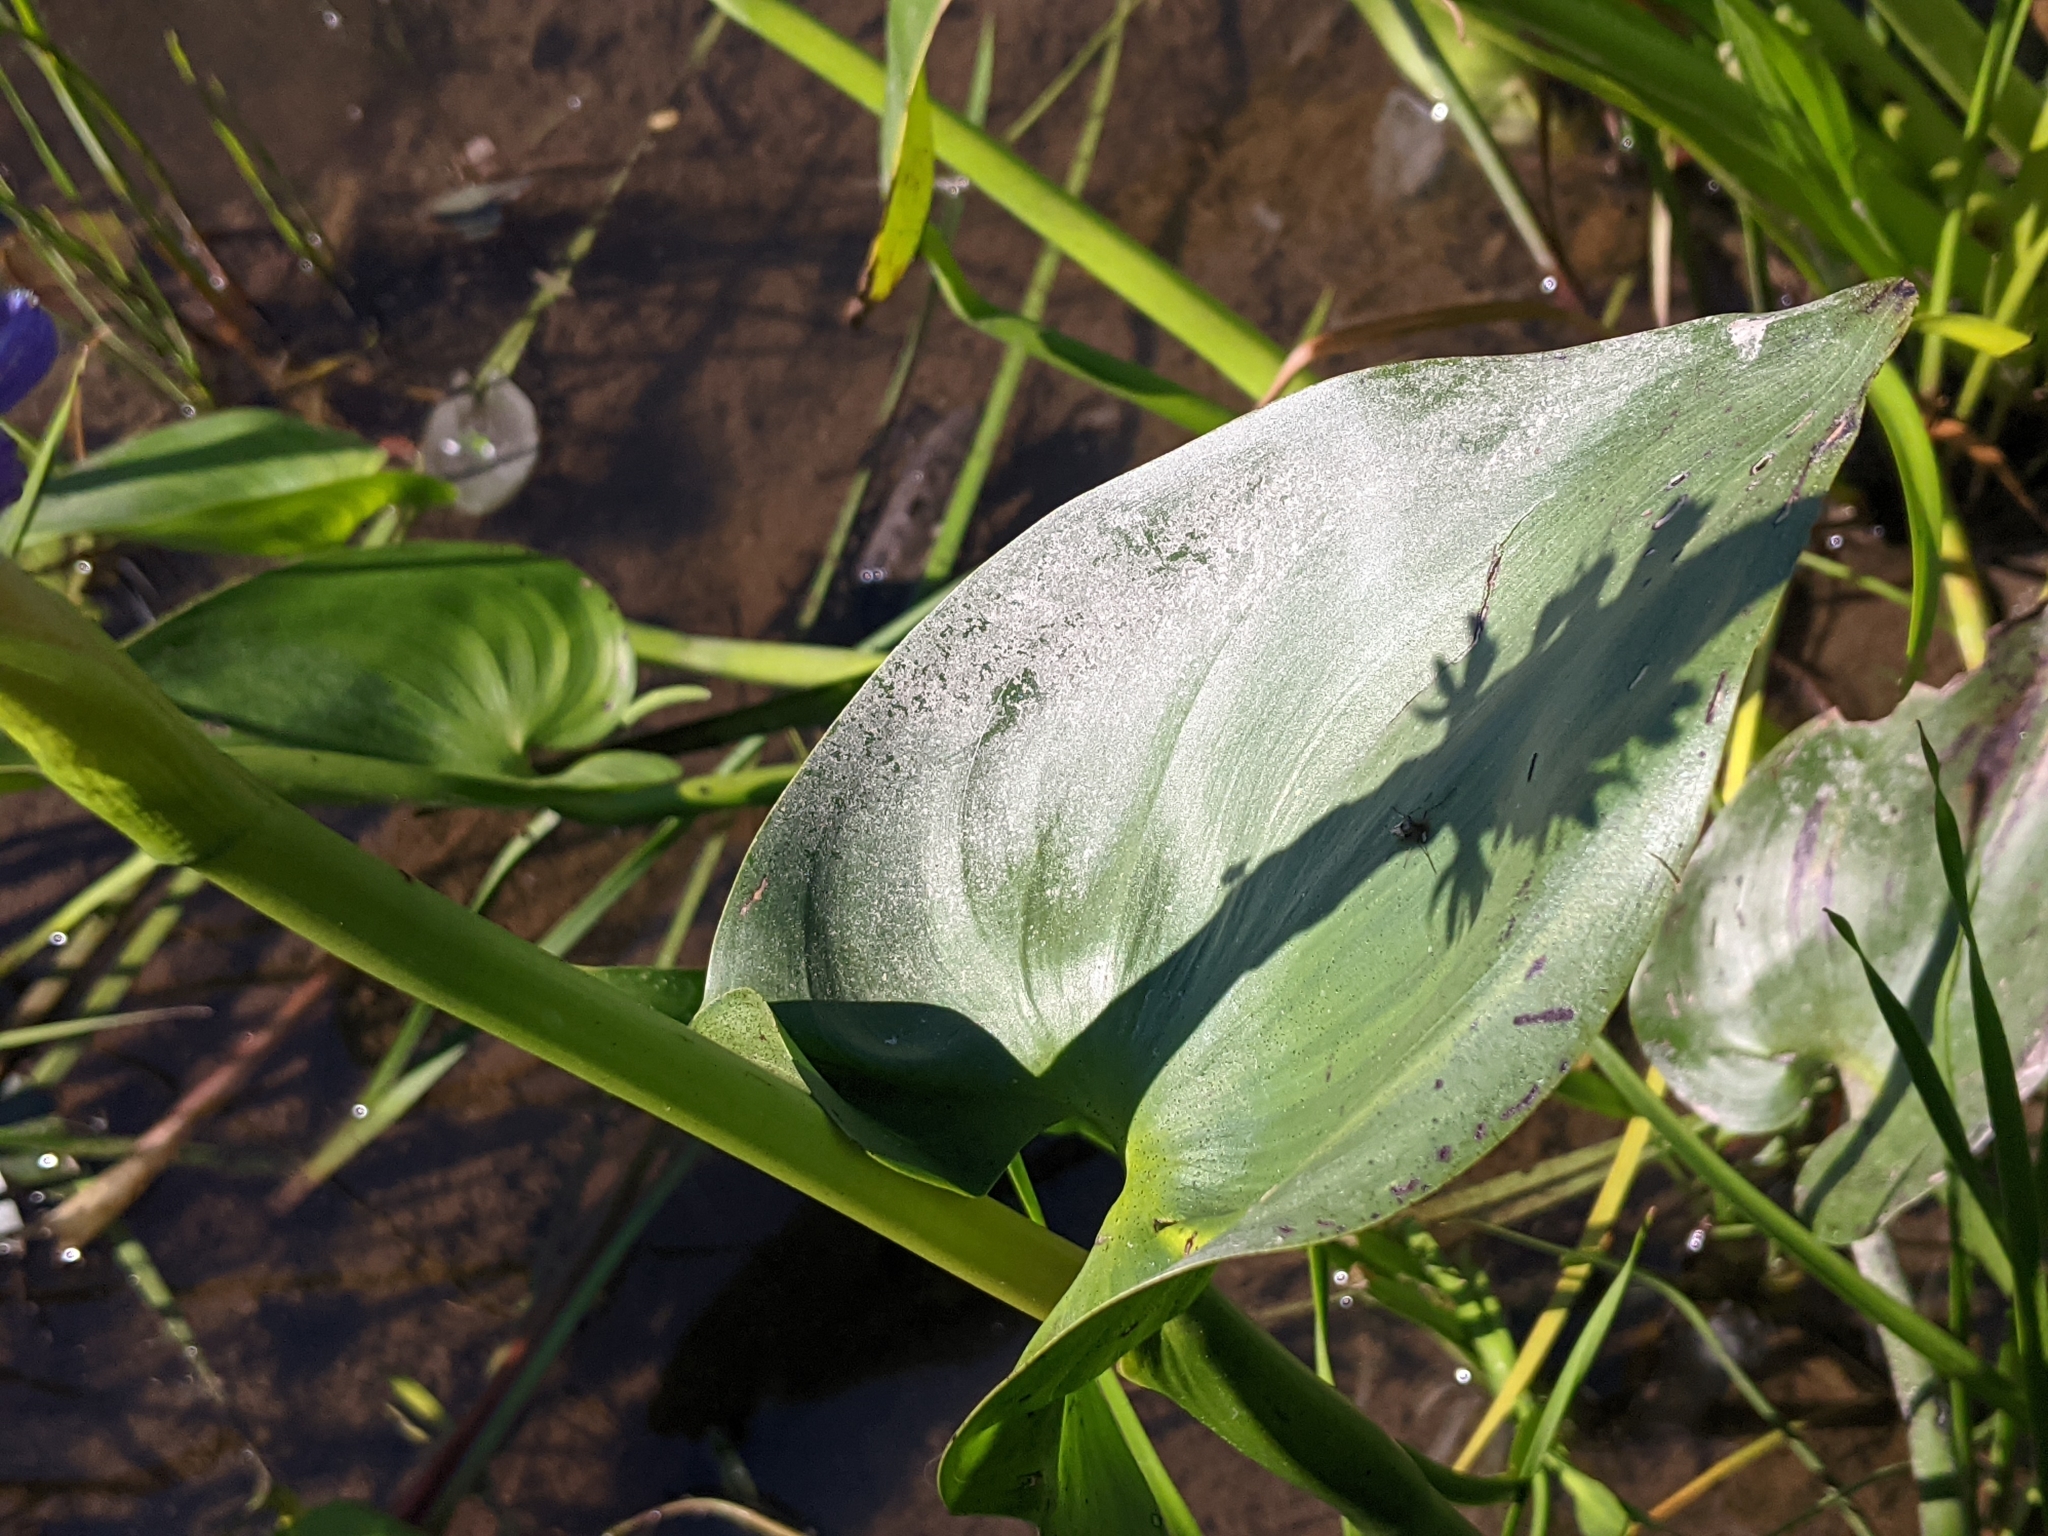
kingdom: Plantae
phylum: Tracheophyta
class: Liliopsida
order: Commelinales
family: Pontederiaceae
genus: Pontederia
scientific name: Pontederia cordata
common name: Pickerelweed
